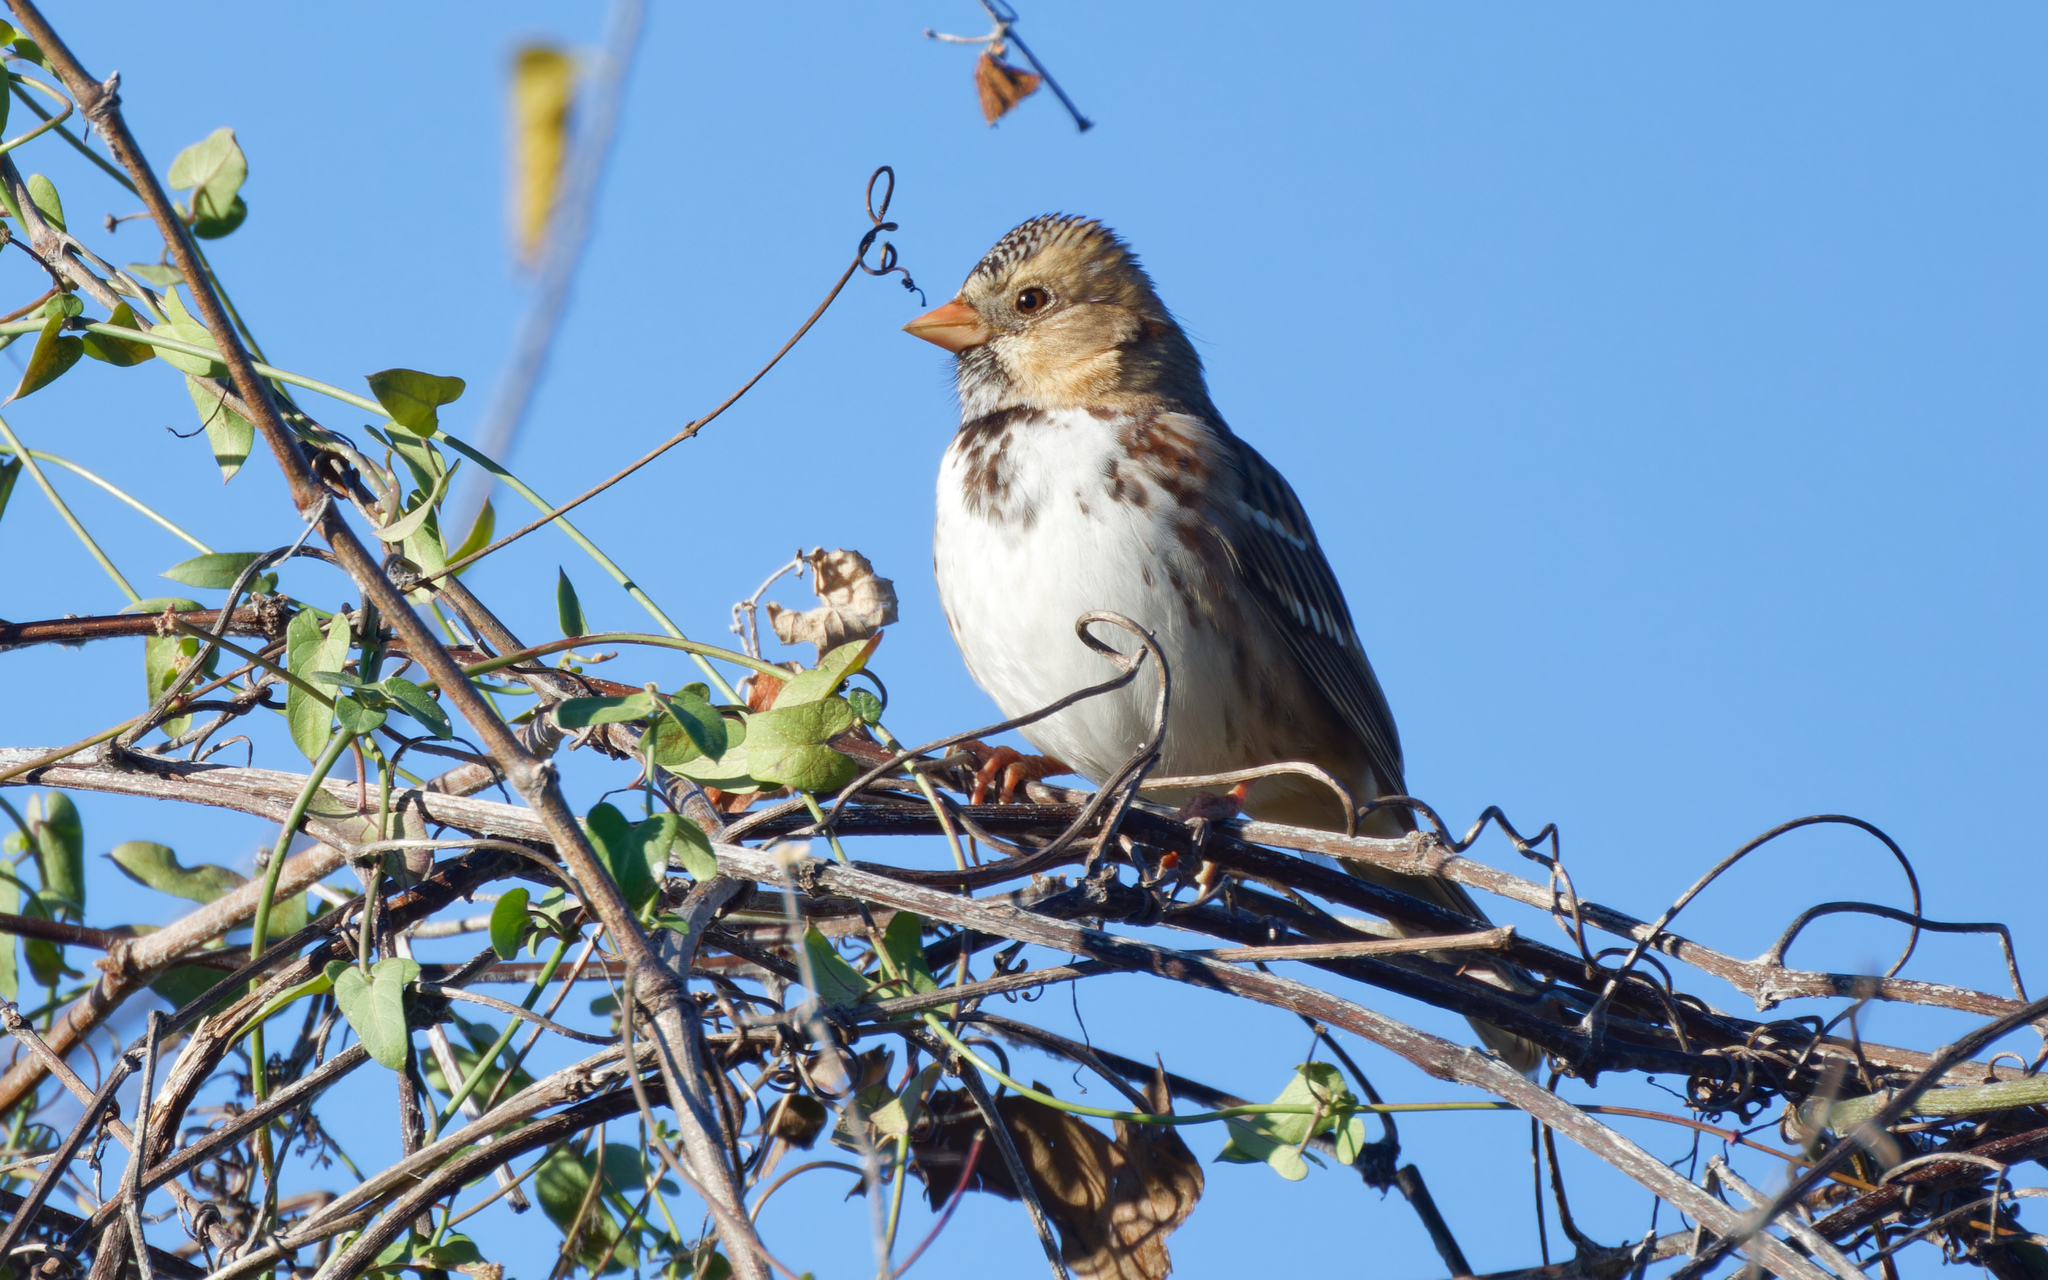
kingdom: Animalia
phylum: Chordata
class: Aves
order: Passeriformes
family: Passerellidae
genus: Zonotrichia
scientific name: Zonotrichia querula
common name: Harris's sparrow
